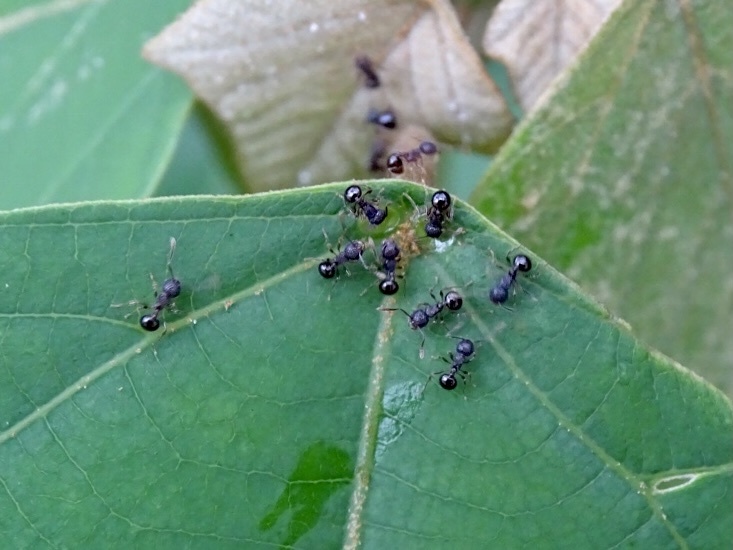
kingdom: Animalia
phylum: Arthropoda
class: Insecta
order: Hymenoptera
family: Formicidae
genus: Pristomyrmex
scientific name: Pristomyrmex punctatus
